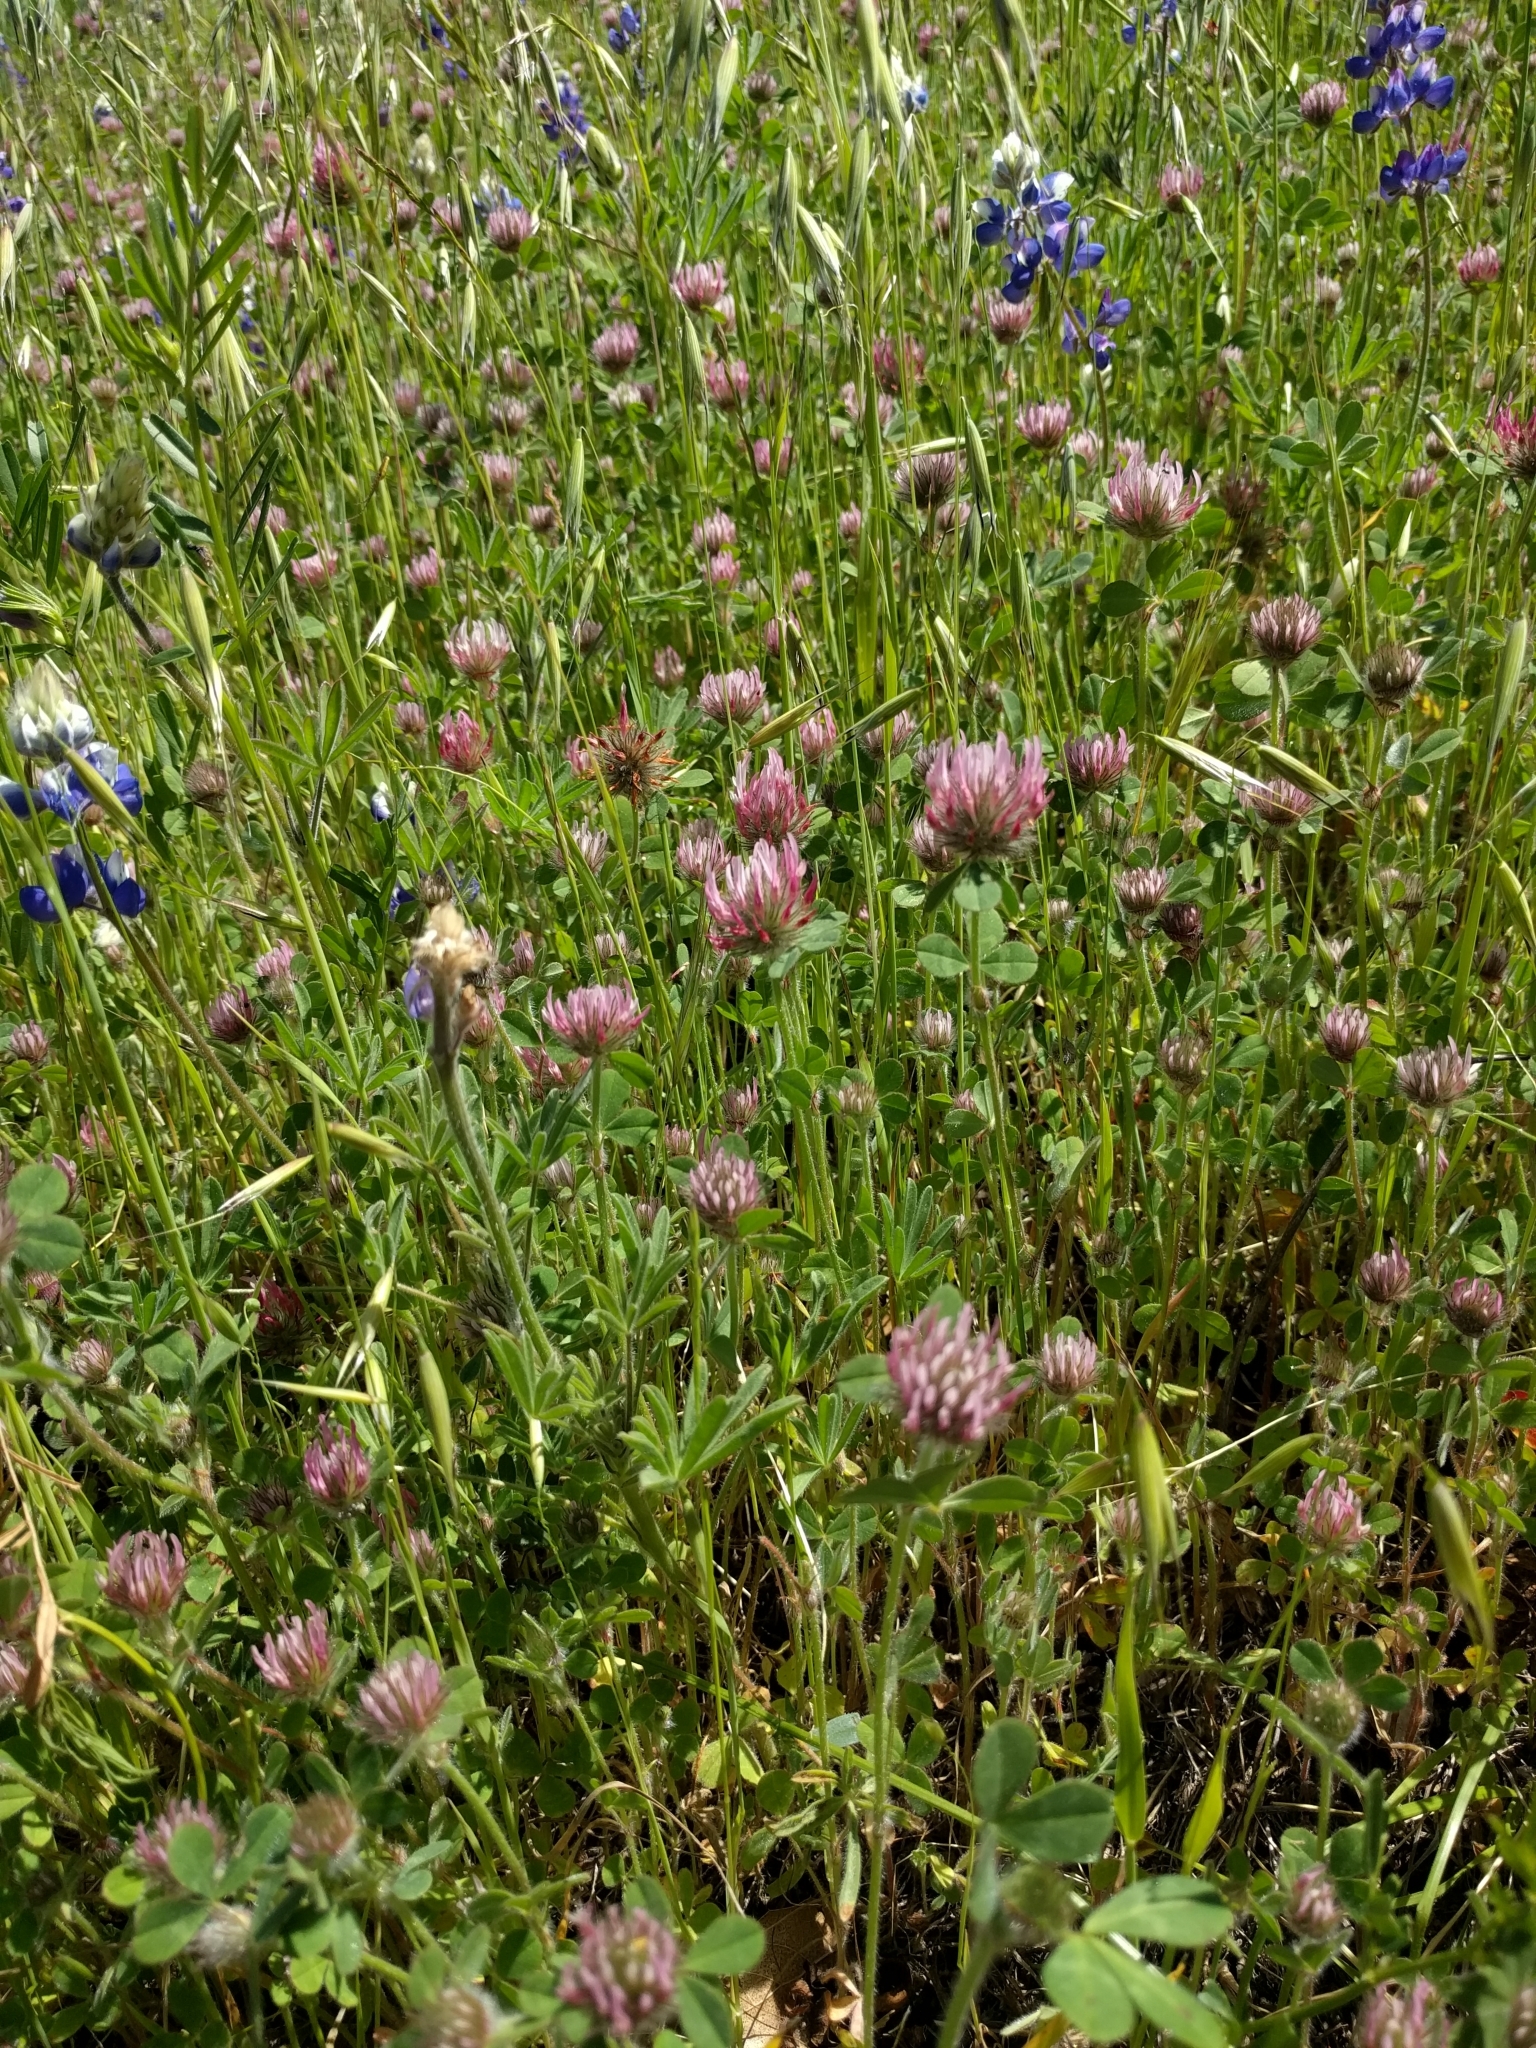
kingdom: Plantae
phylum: Tracheophyta
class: Magnoliopsida
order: Fabales
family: Fabaceae
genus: Trifolium
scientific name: Trifolium hirtum
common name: Rose clover
